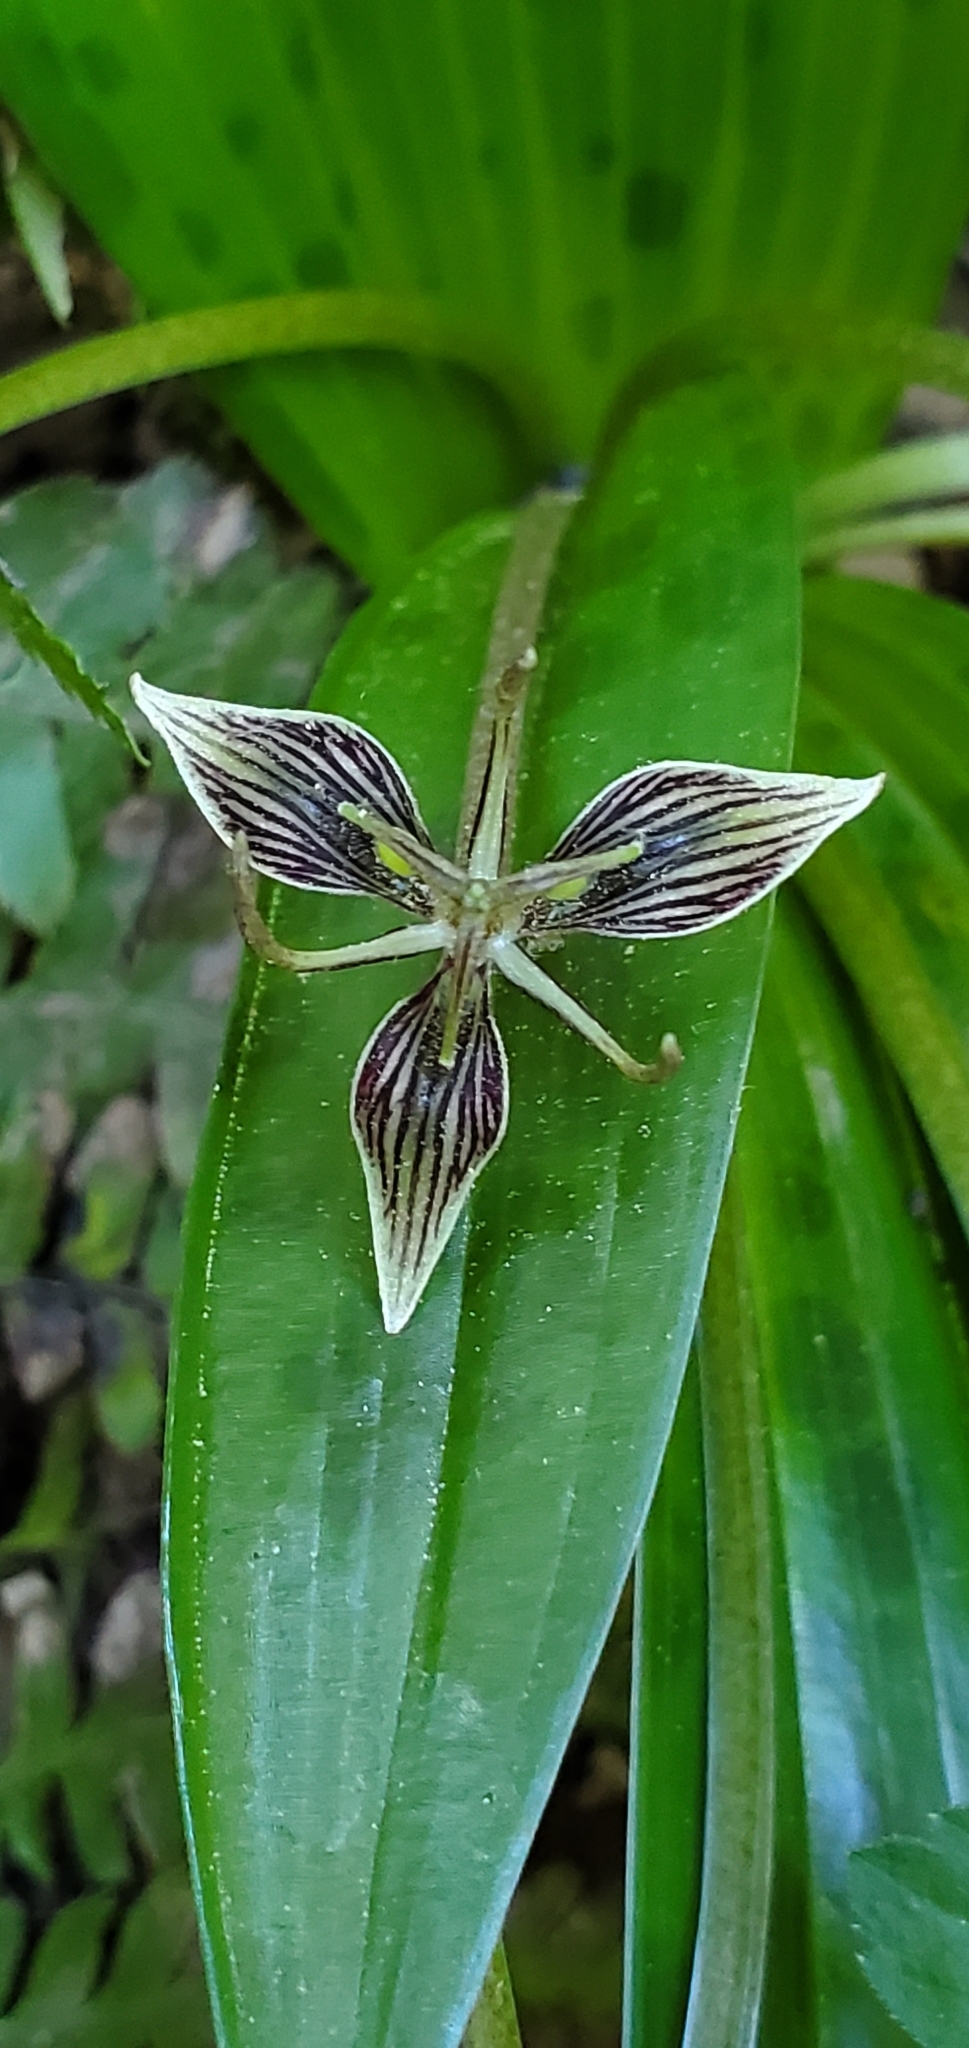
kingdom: Plantae
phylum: Tracheophyta
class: Liliopsida
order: Liliales
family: Liliaceae
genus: Scoliopus
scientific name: Scoliopus bigelovii
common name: Foetid adder's-tongue
